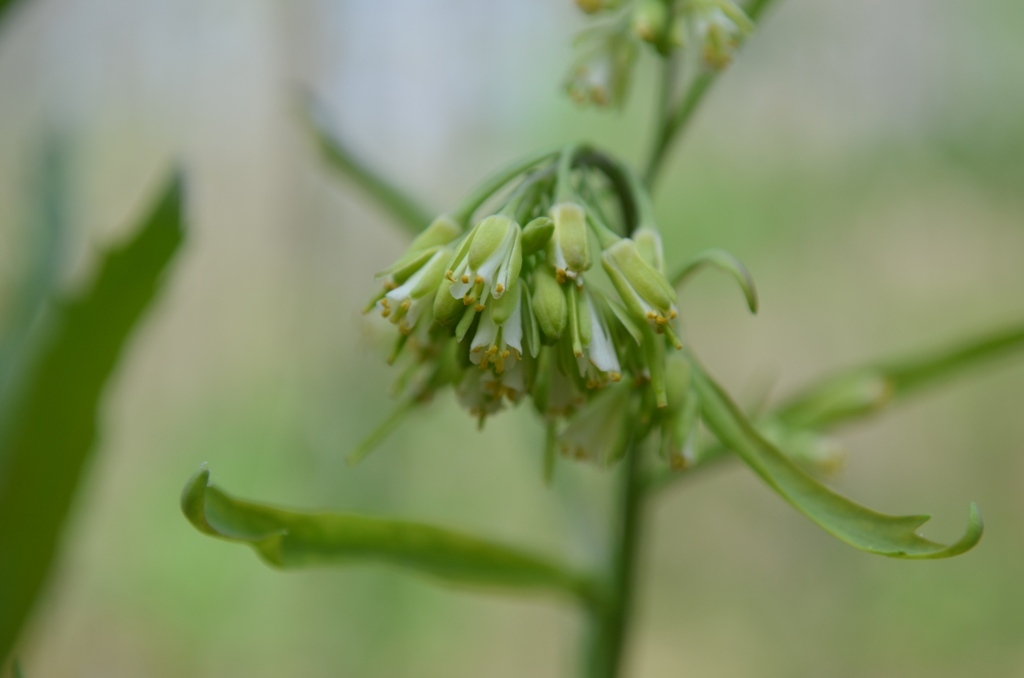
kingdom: Plantae
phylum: Tracheophyta
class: Magnoliopsida
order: Brassicales
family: Brassicaceae
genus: Borodinia
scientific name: Borodinia laevigata
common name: Smooth rockcress
